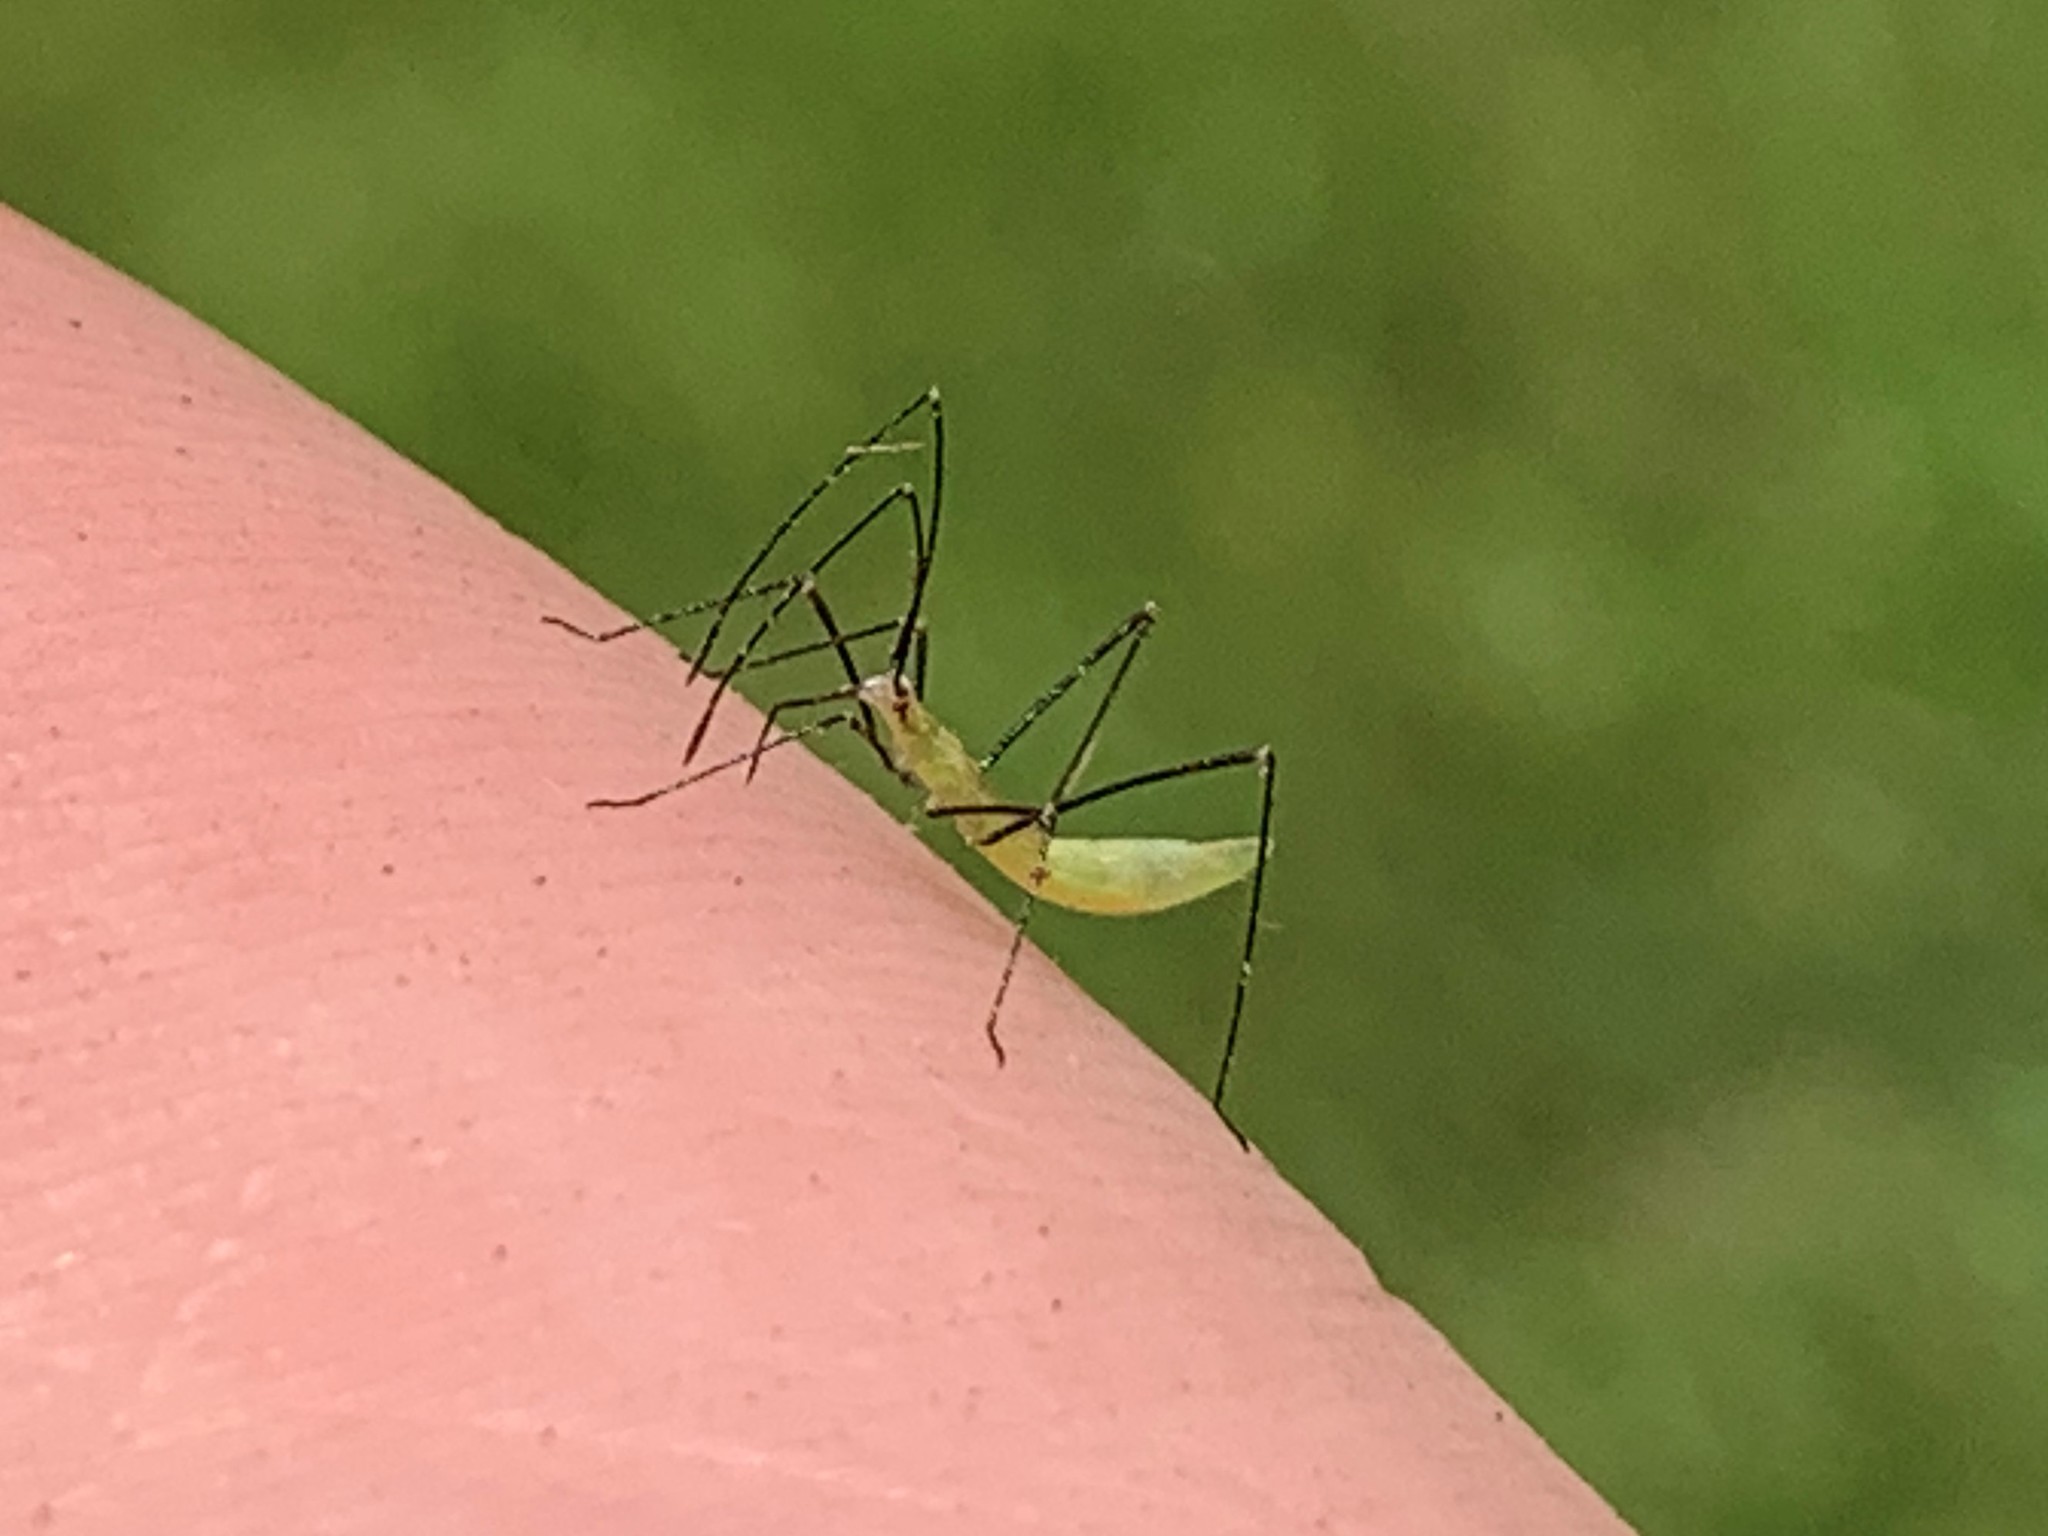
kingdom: Animalia
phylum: Arthropoda
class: Insecta
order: Hemiptera
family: Reduviidae
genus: Zelus
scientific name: Zelus luridus
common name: Pale green assassin bug
